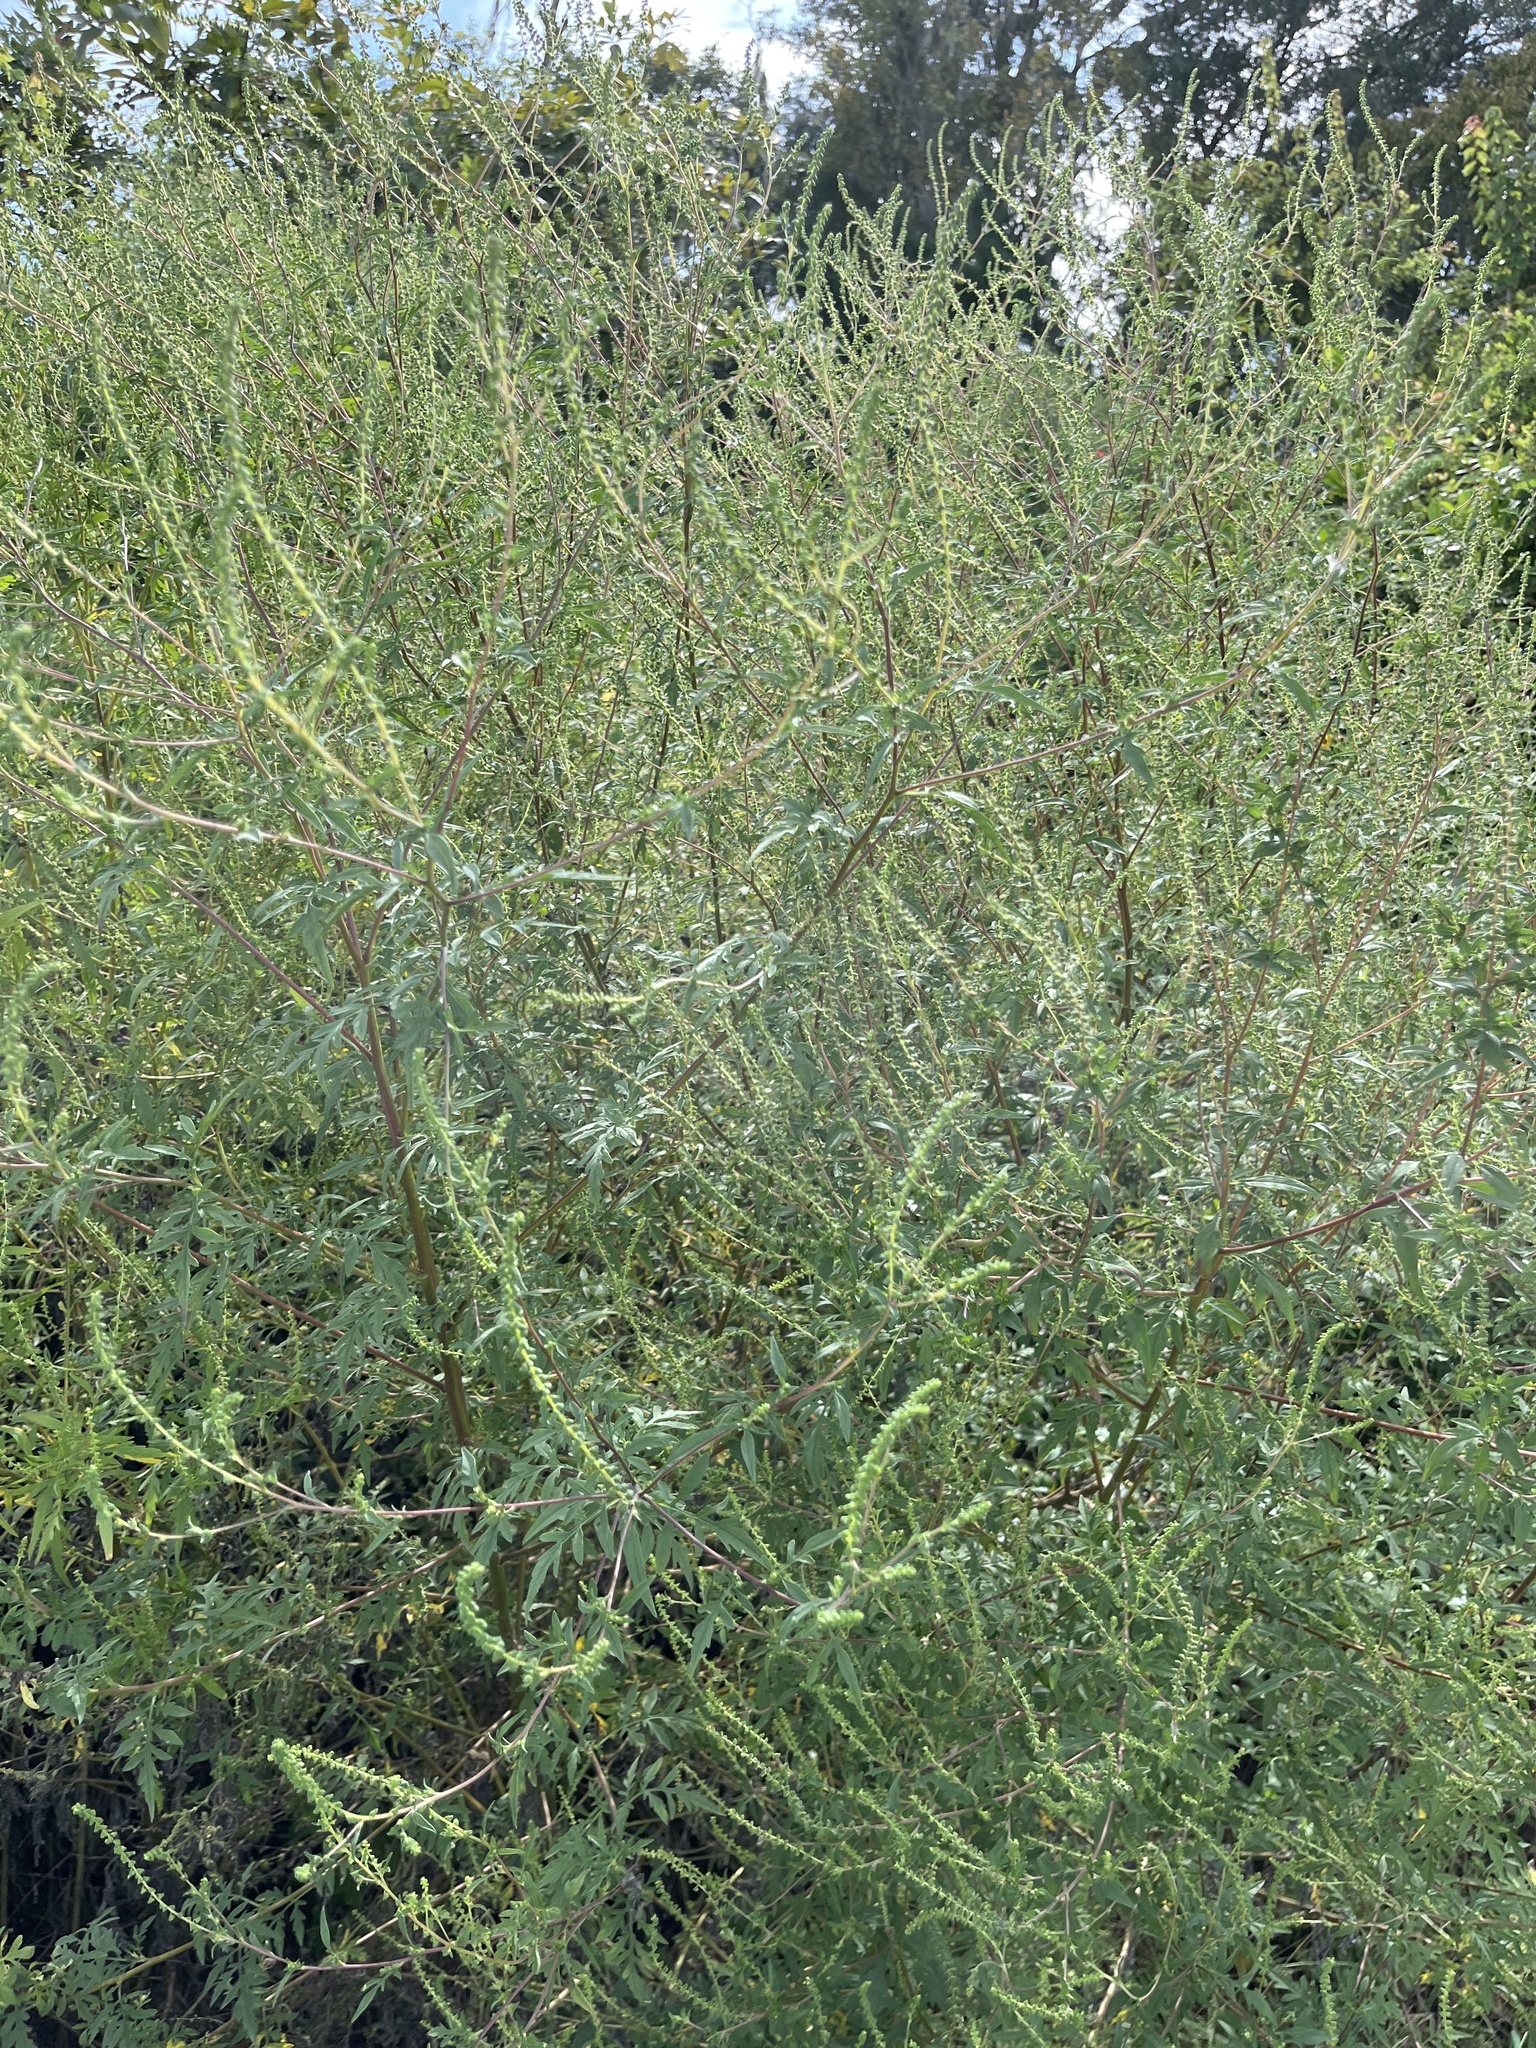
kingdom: Plantae
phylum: Tracheophyta
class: Magnoliopsida
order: Asterales
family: Asteraceae
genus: Ambrosia
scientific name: Ambrosia artemisiifolia
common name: Annual ragweed
